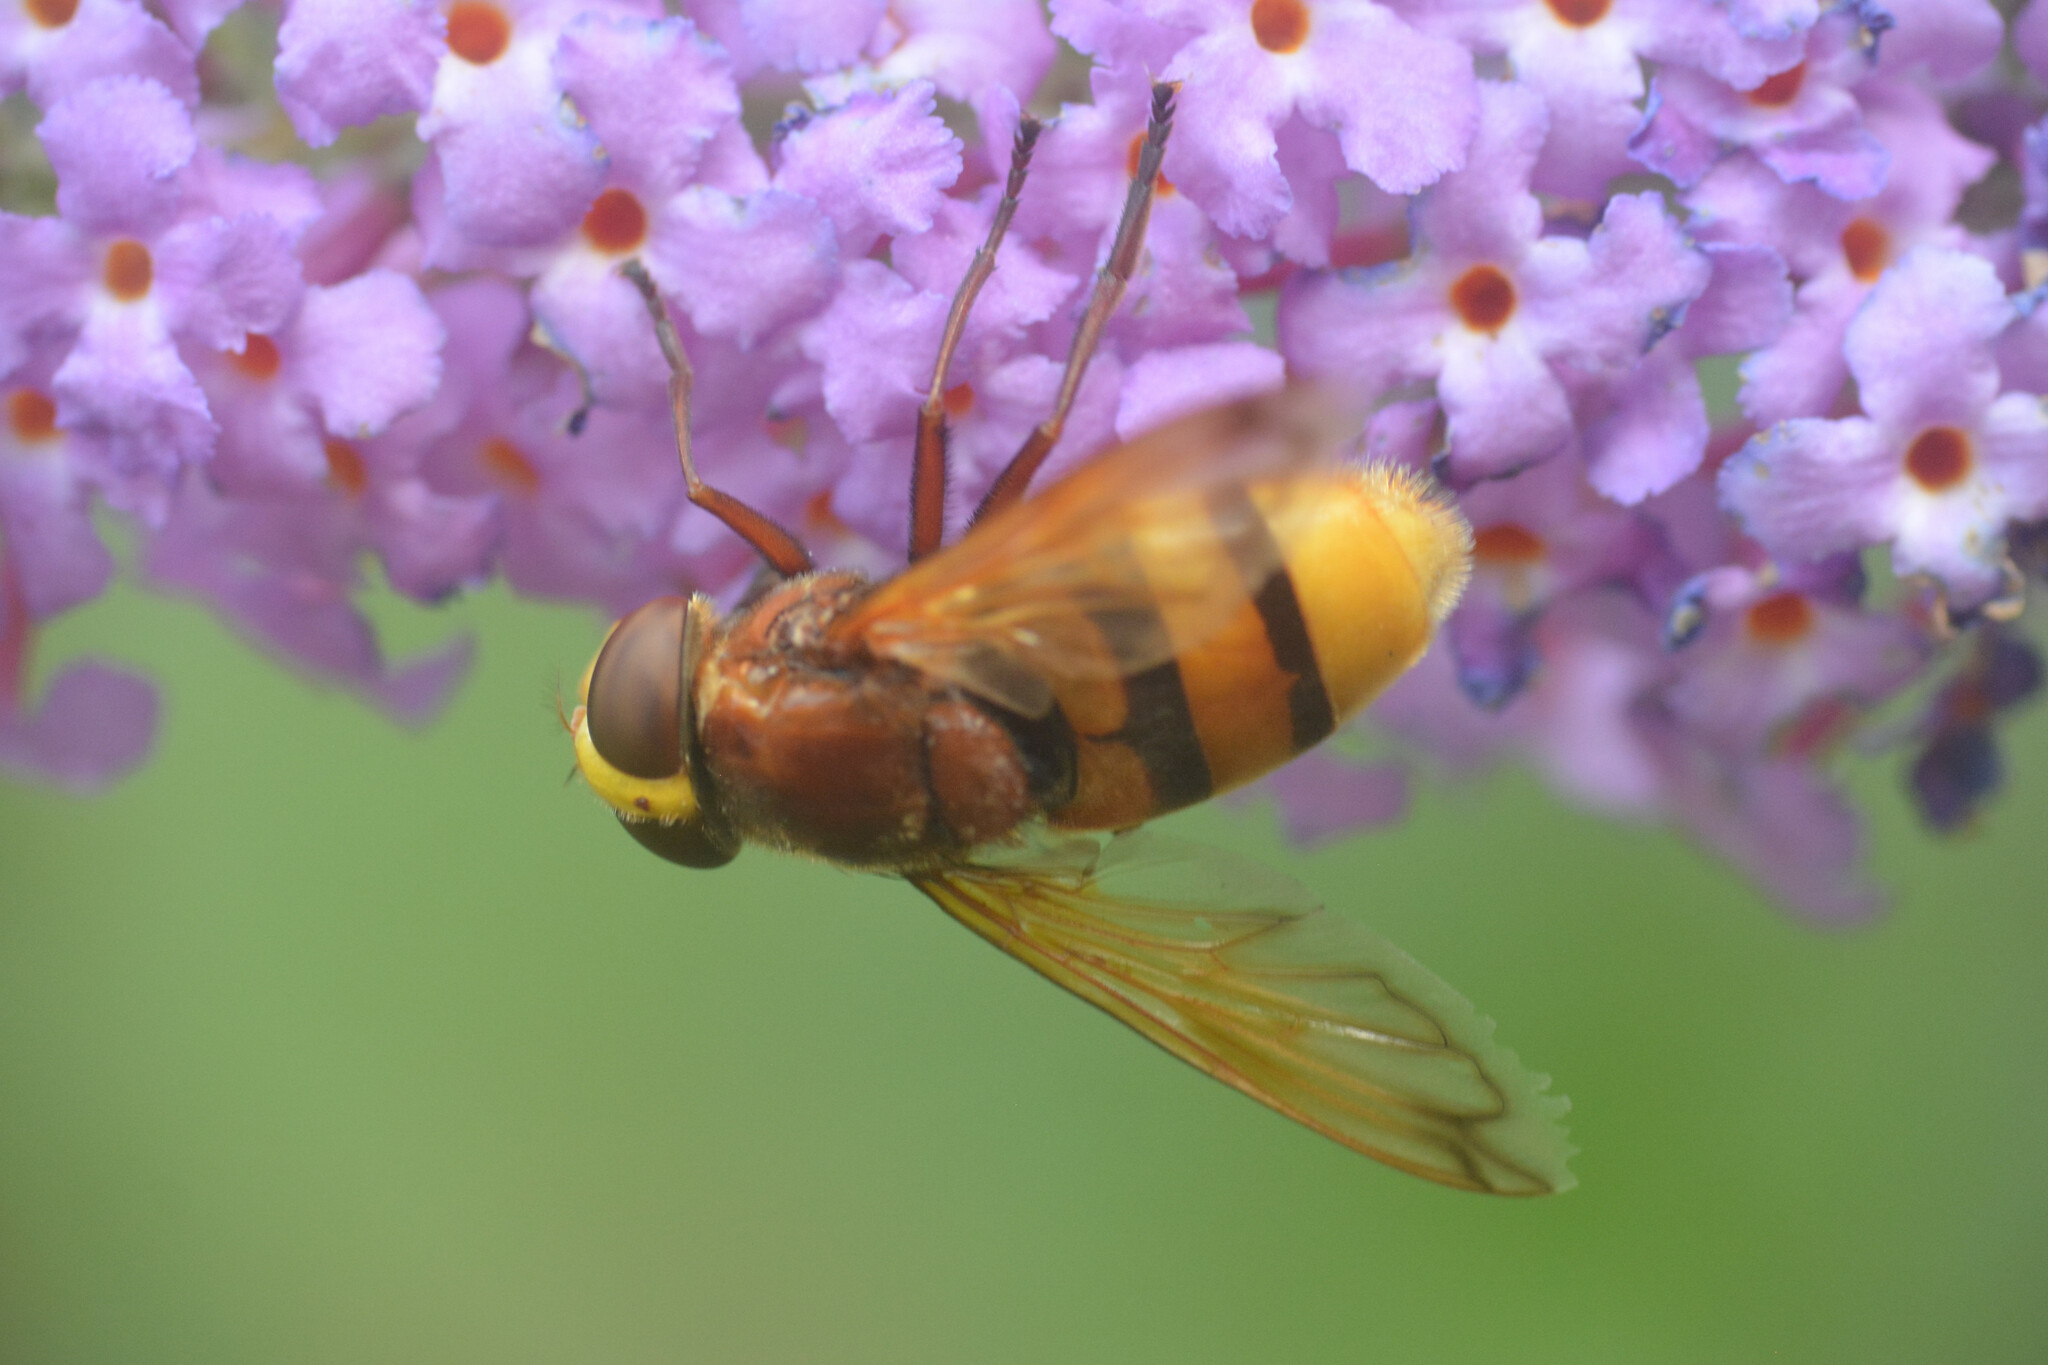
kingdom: Animalia
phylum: Arthropoda
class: Insecta
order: Diptera
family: Syrphidae
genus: Volucella
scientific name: Volucella zonaria
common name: Hornet hoverfly
